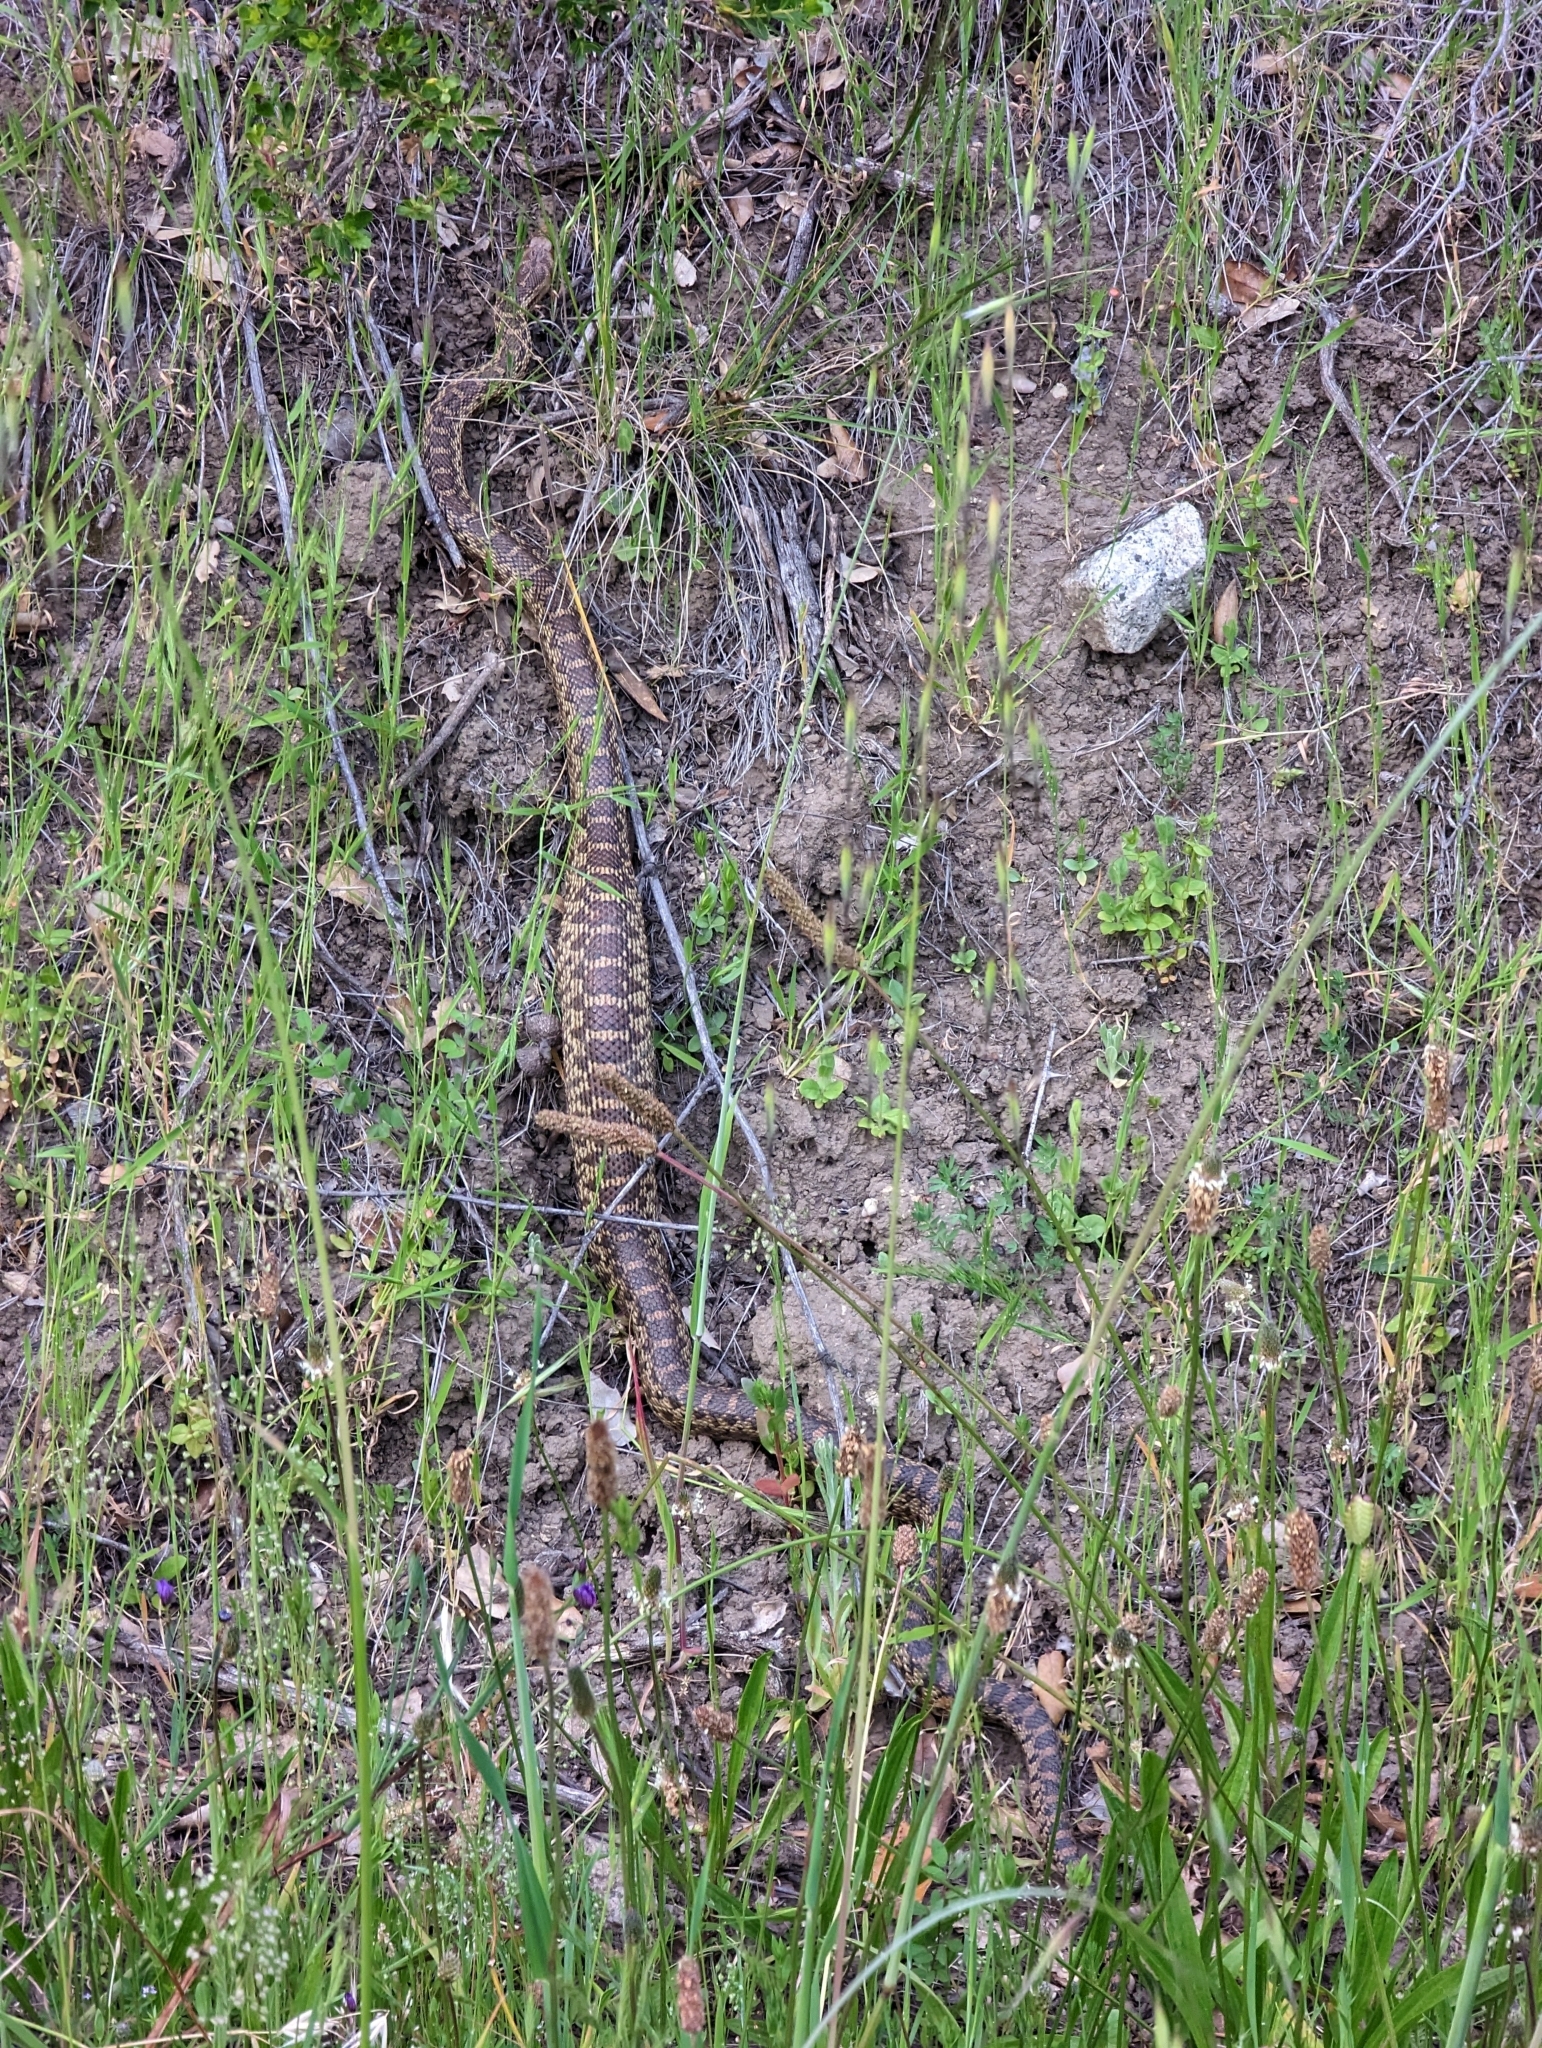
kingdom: Animalia
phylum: Chordata
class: Squamata
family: Colubridae
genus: Pituophis
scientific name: Pituophis catenifer
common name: Gopher snake
